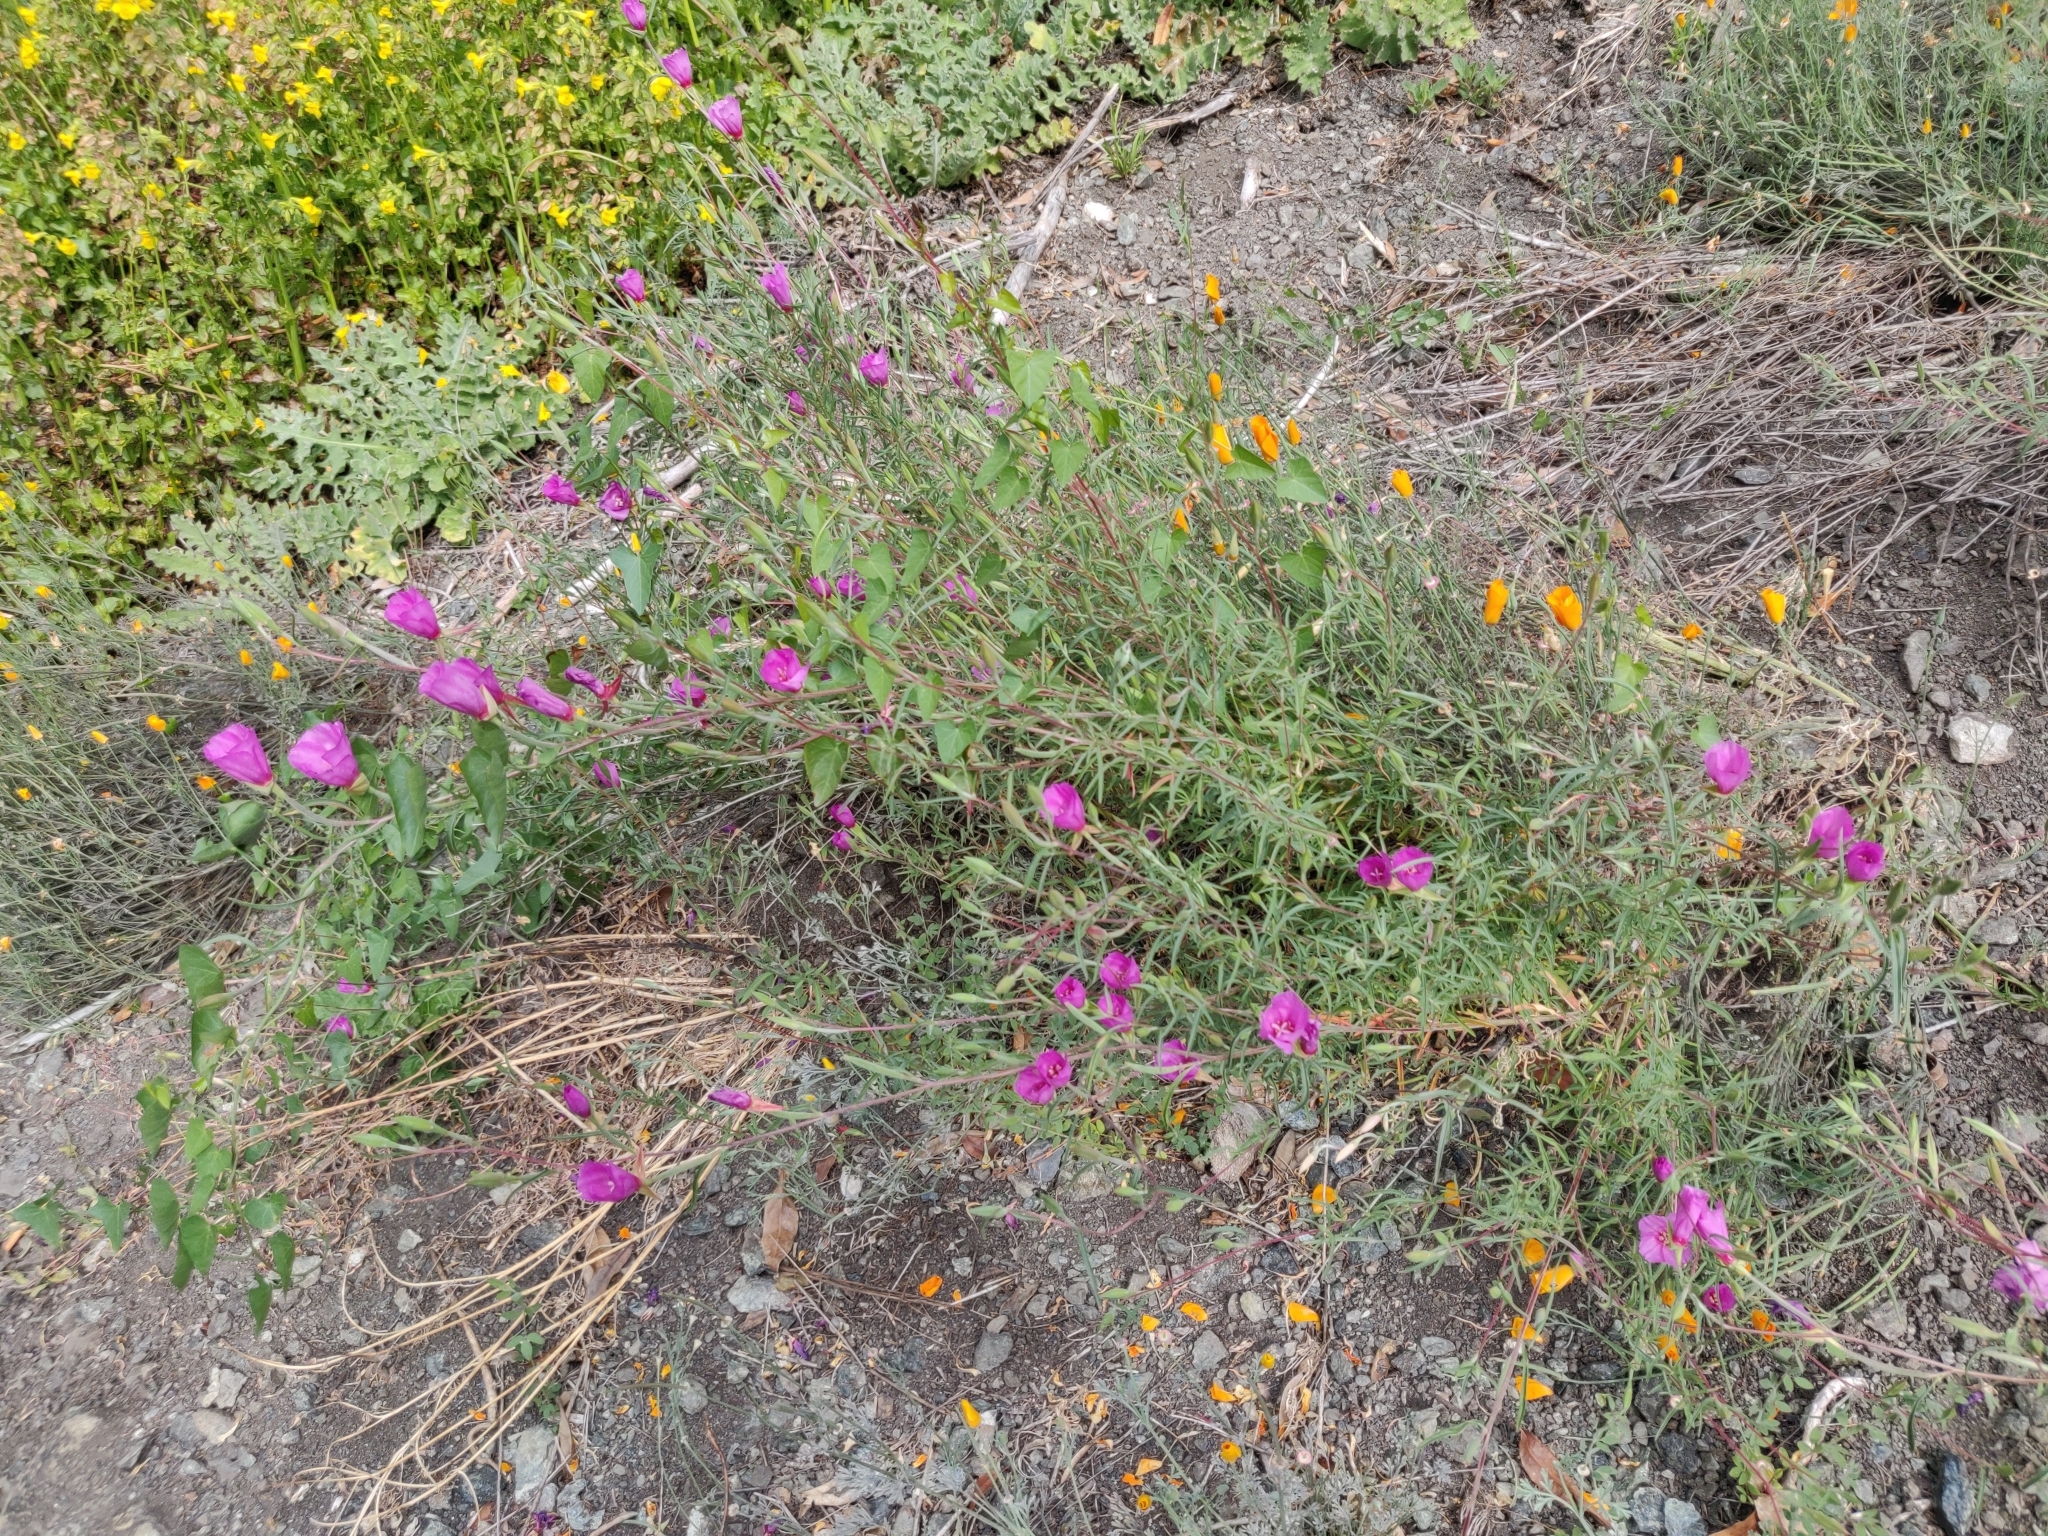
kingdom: Plantae
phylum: Tracheophyta
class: Magnoliopsida
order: Myrtales
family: Onagraceae
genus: Clarkia
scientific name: Clarkia rubicunda
